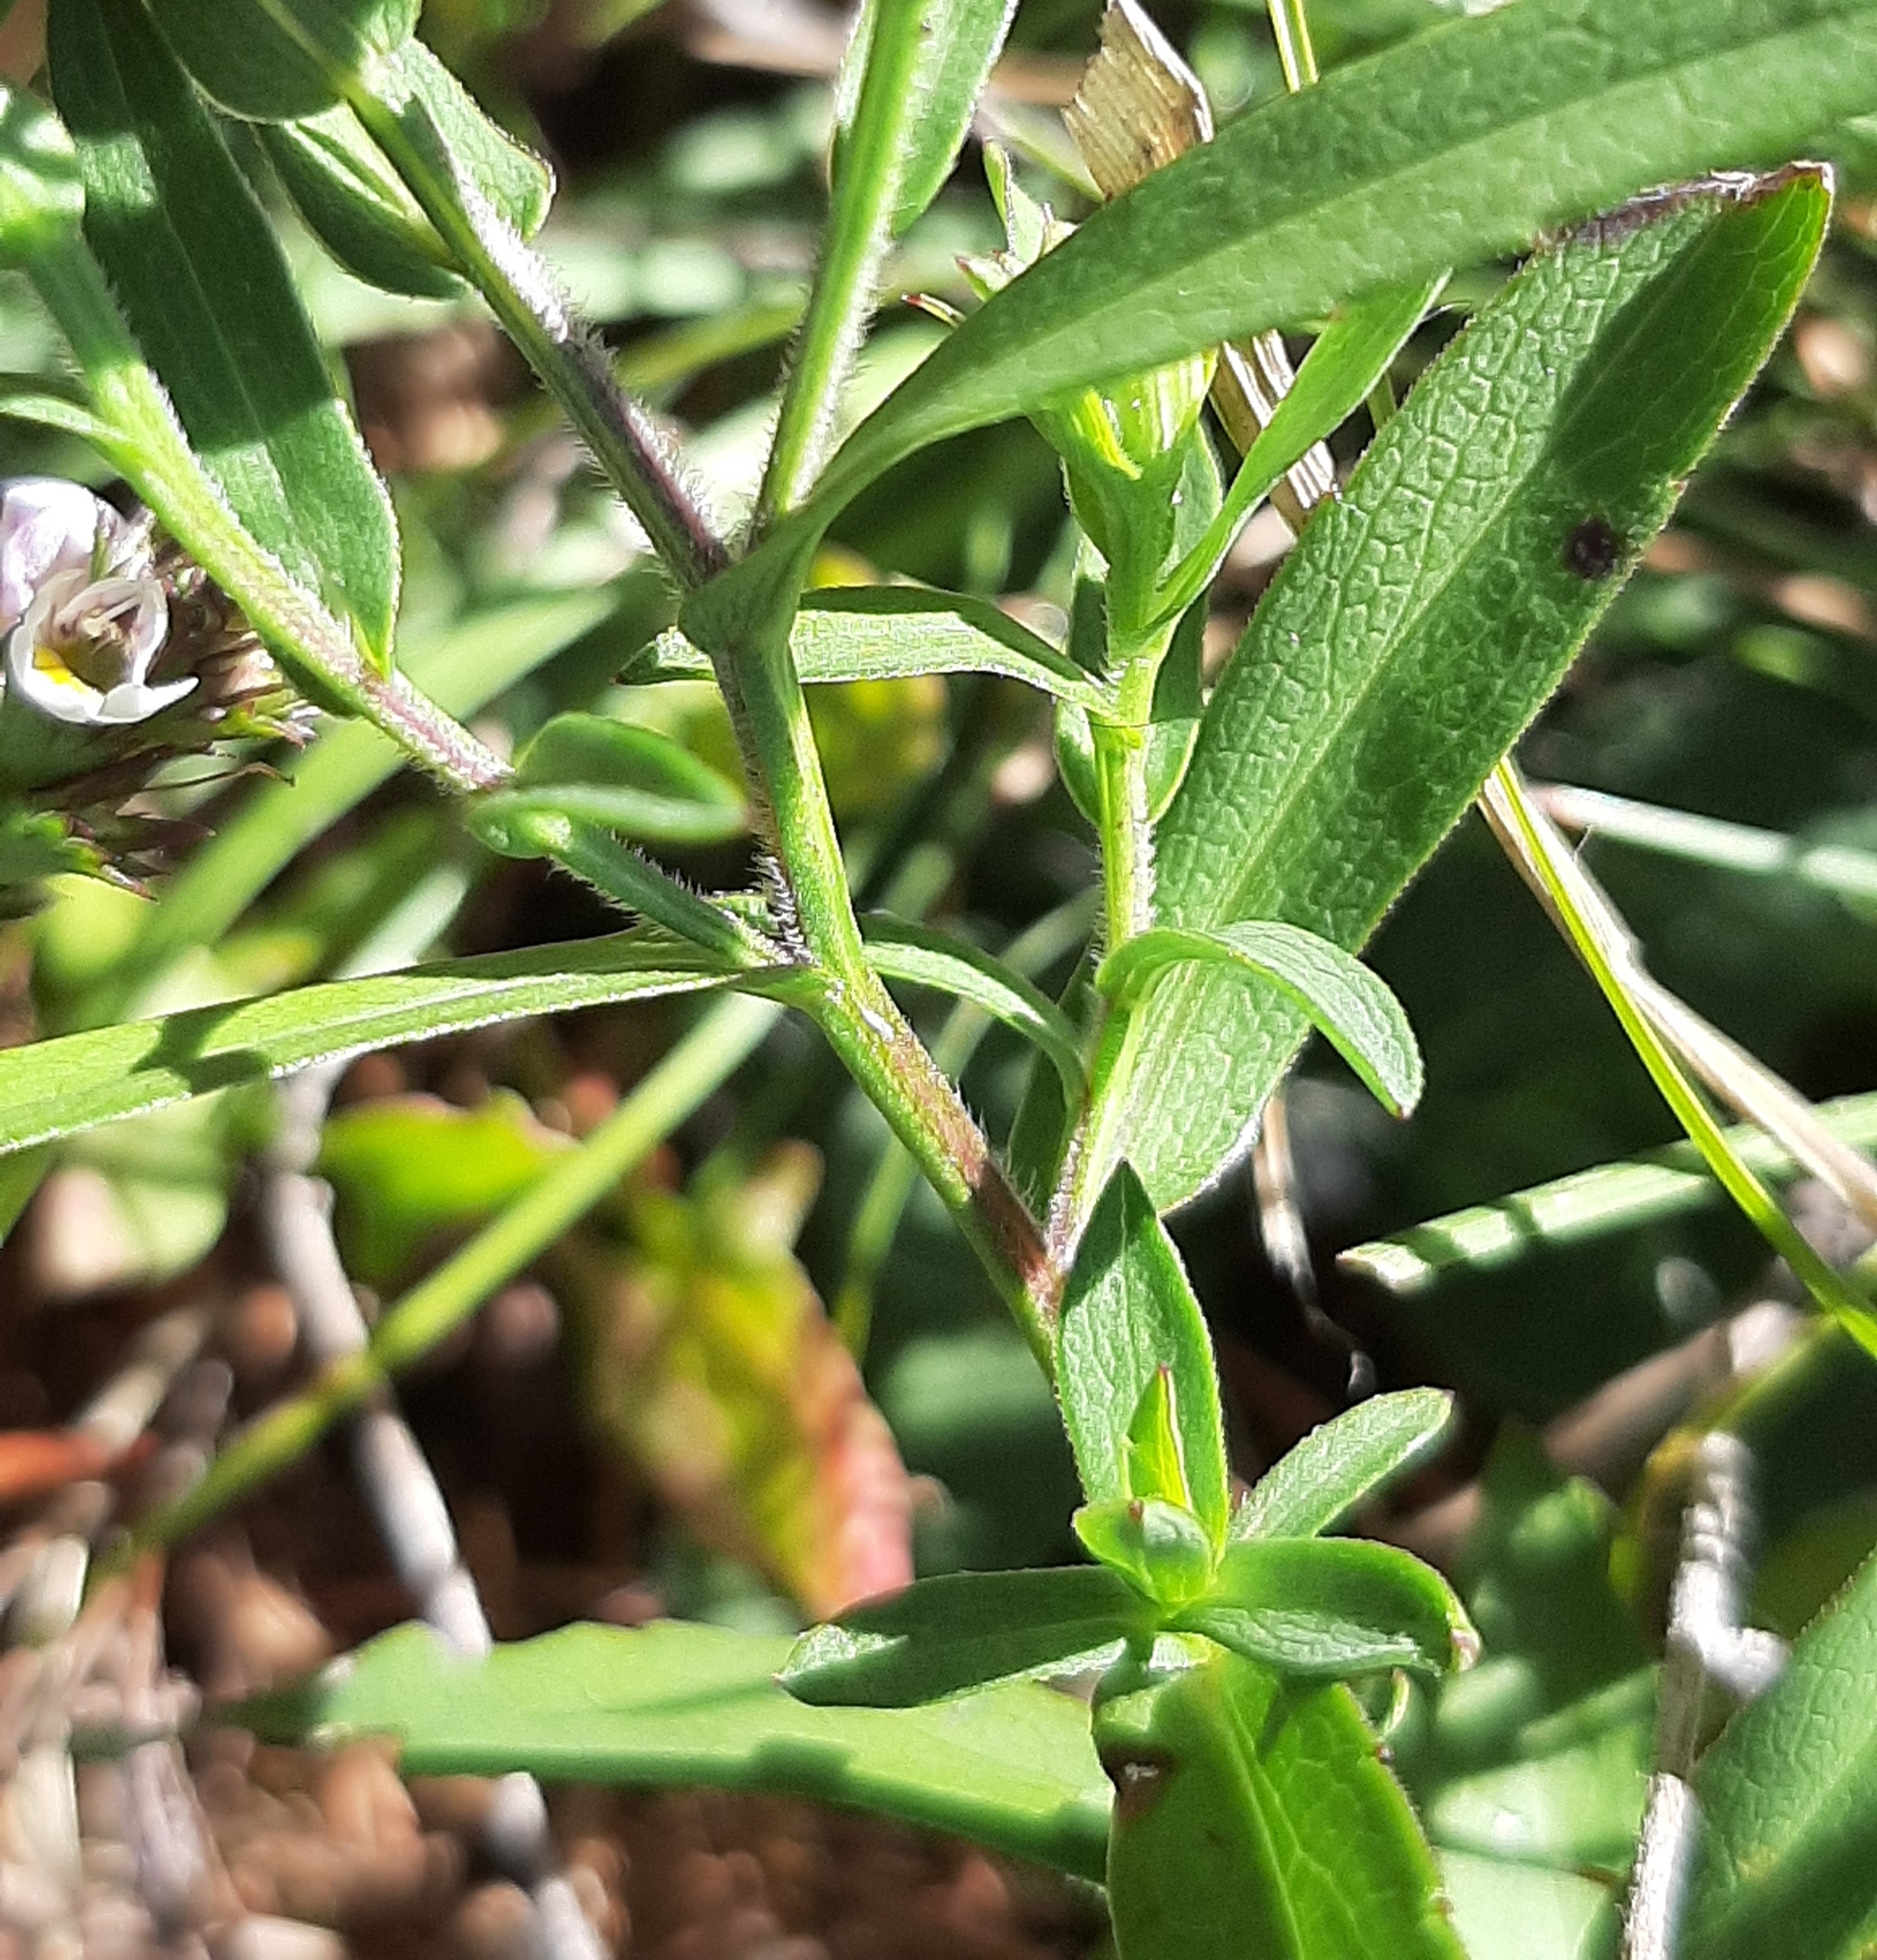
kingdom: Plantae
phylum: Tracheophyta
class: Magnoliopsida
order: Asterales
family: Asteraceae
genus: Symphyotrichum
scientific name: Symphyotrichum novi-belgii
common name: Michaelmas daisy
